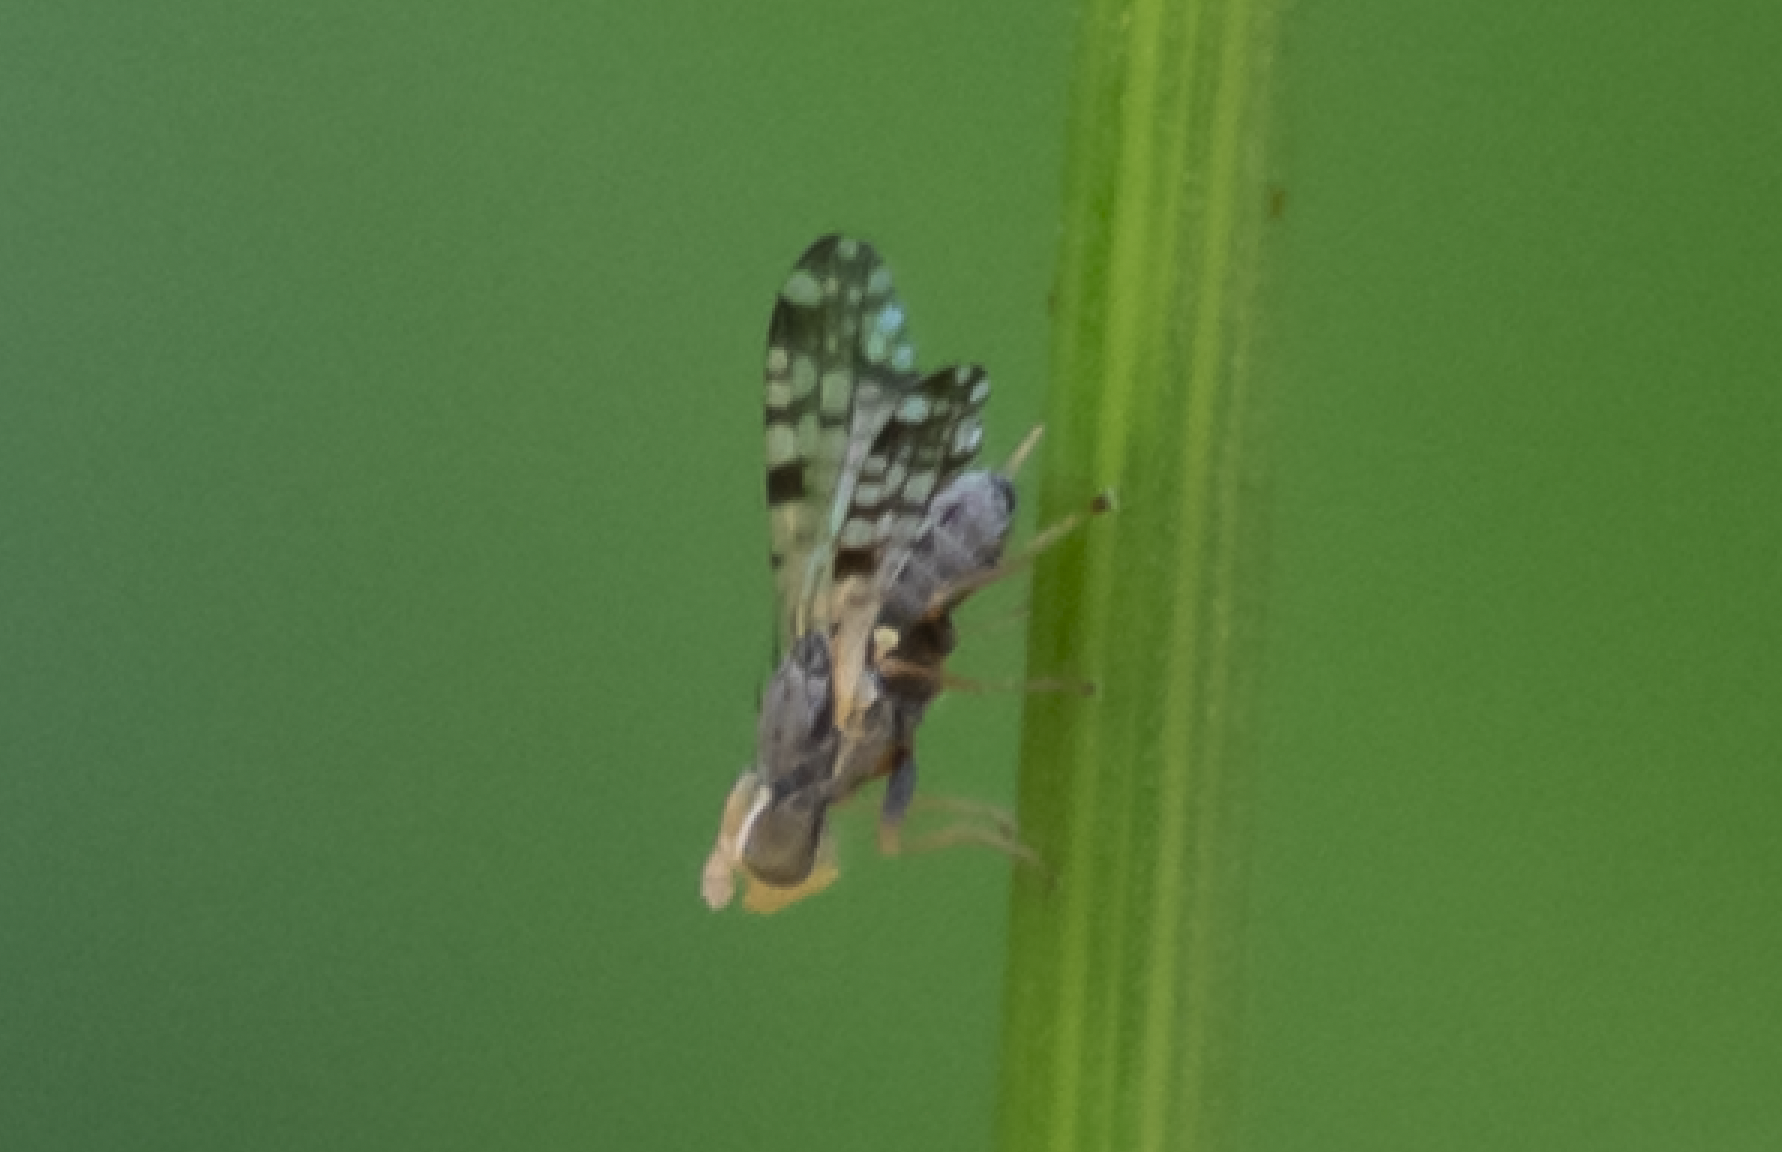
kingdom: Animalia
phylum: Arthropoda
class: Insecta
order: Diptera
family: Tephritidae
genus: Dioxyna
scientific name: Dioxyna picciola
